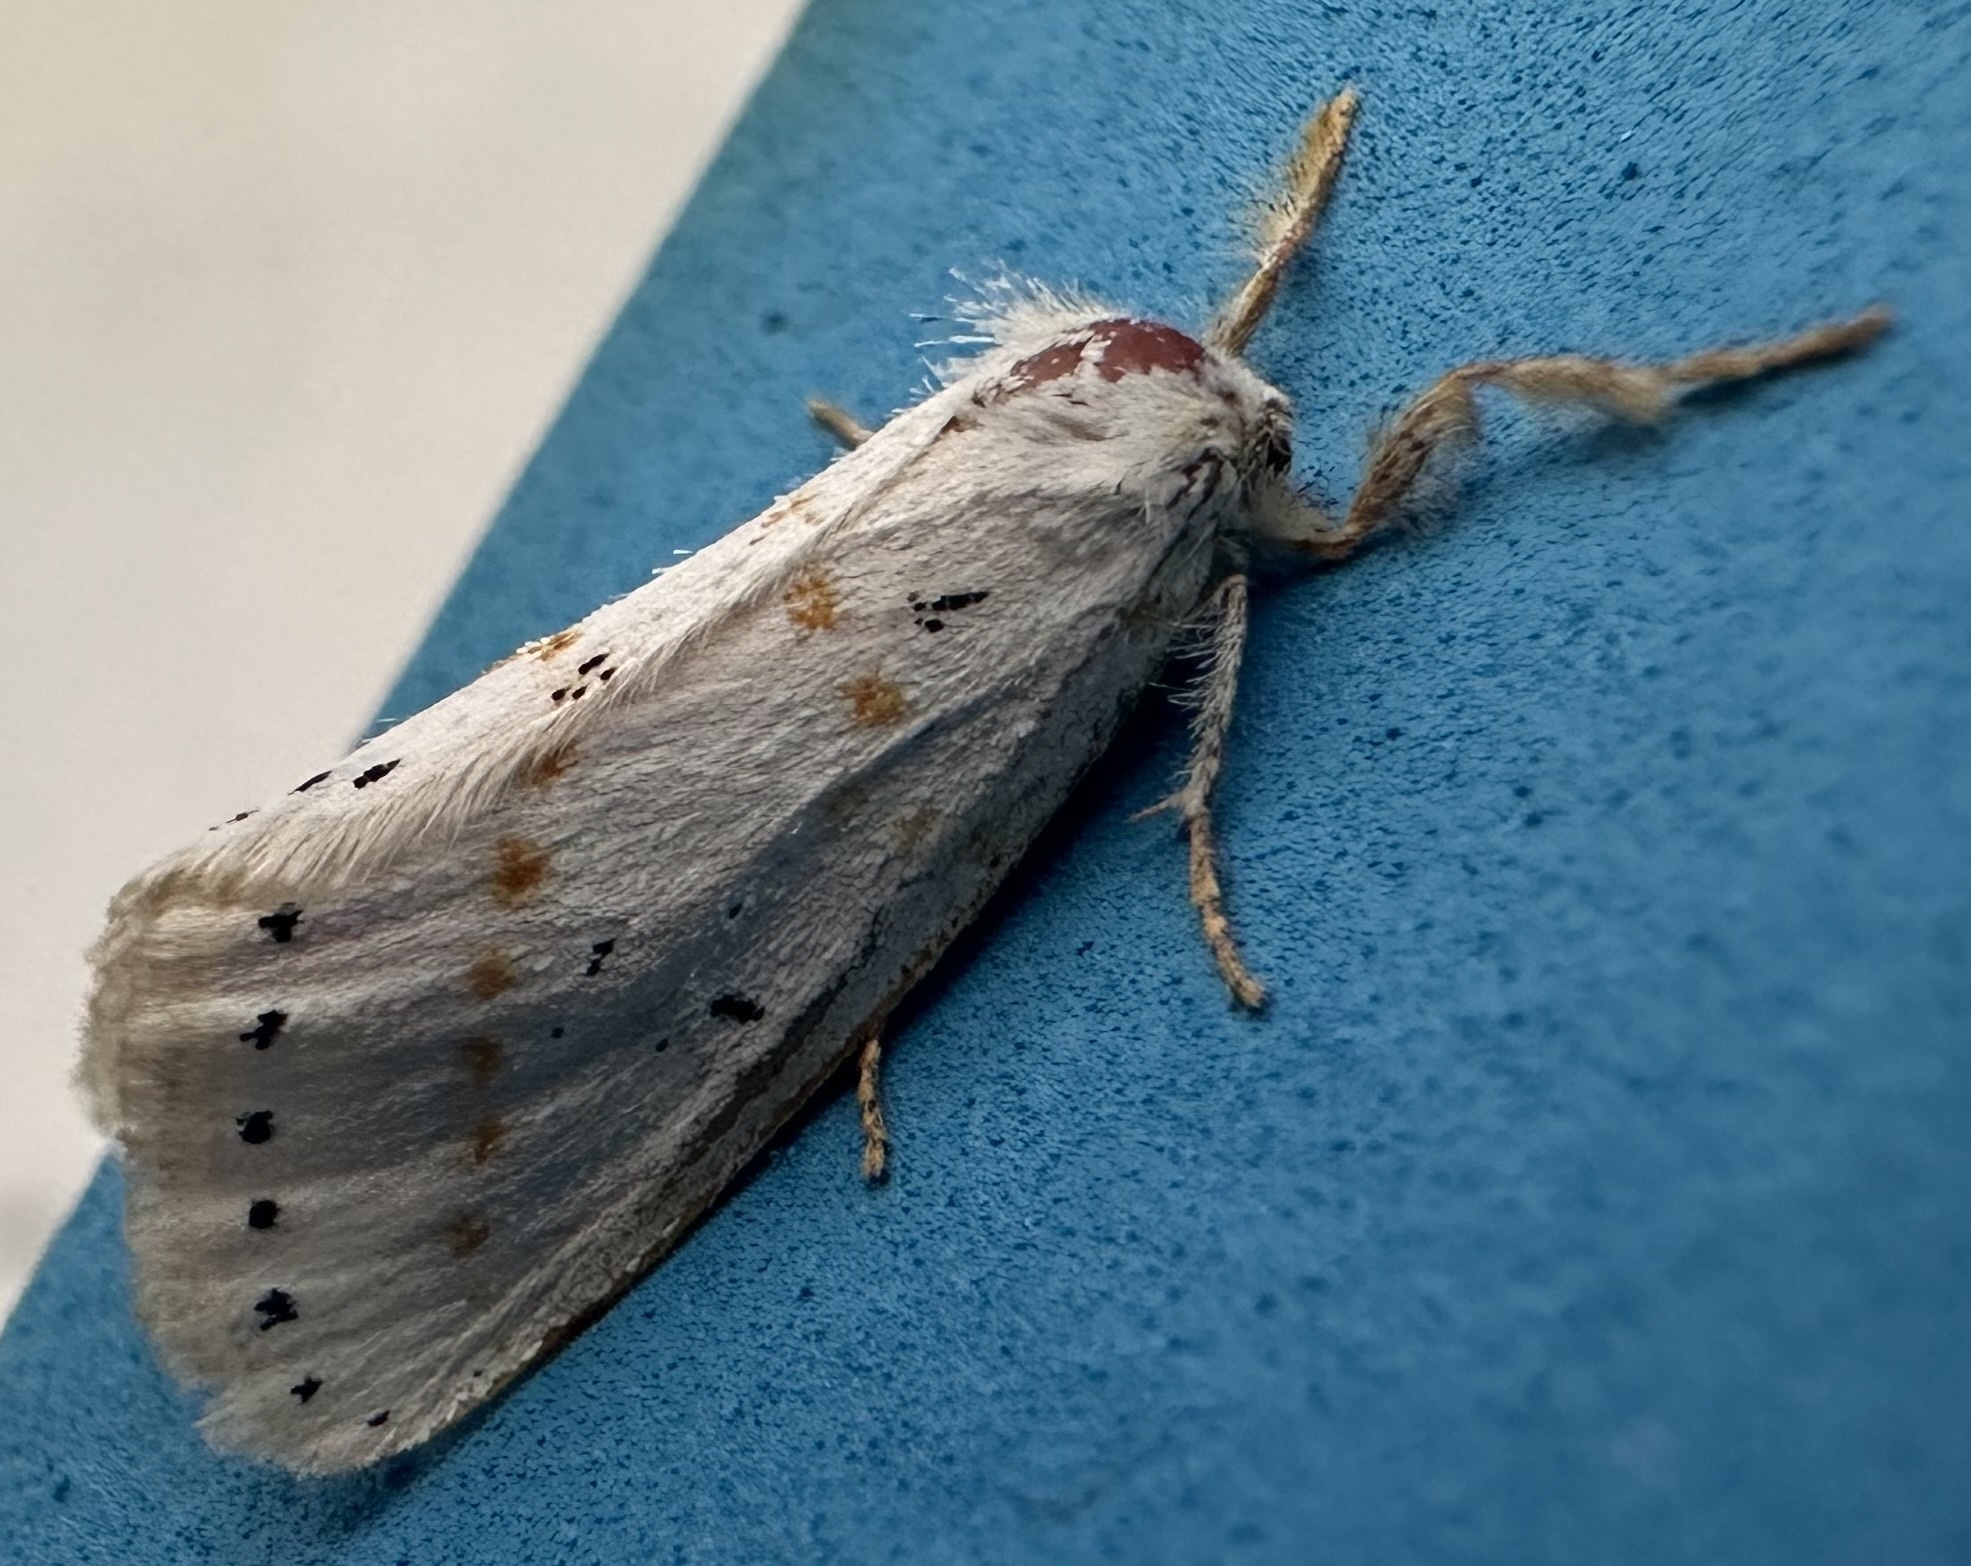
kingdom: Animalia
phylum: Arthropoda
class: Insecta
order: Lepidoptera
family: Erebidae
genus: Lacipa
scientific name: Lacipa gracilis
